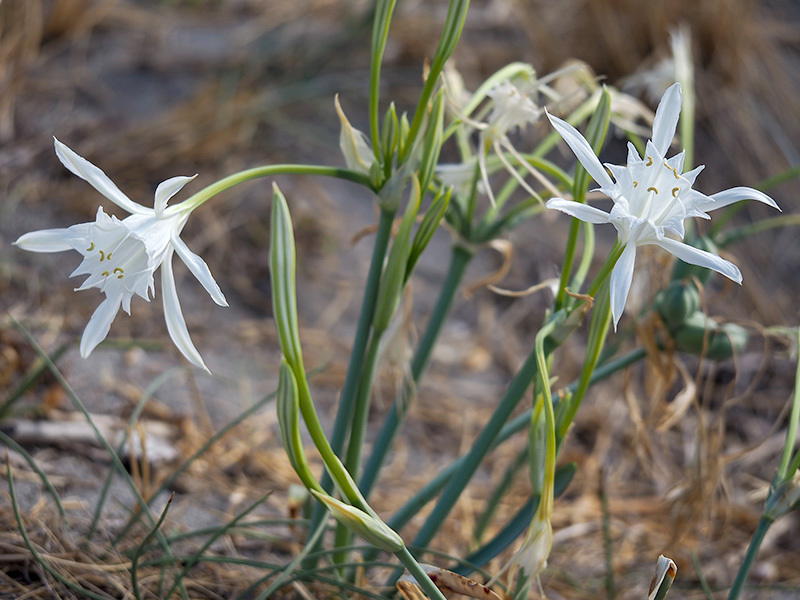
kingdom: Plantae
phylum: Tracheophyta
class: Liliopsida
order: Asparagales
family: Amaryllidaceae
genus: Pancratium
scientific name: Pancratium maritimum
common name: Sea-daffodil
